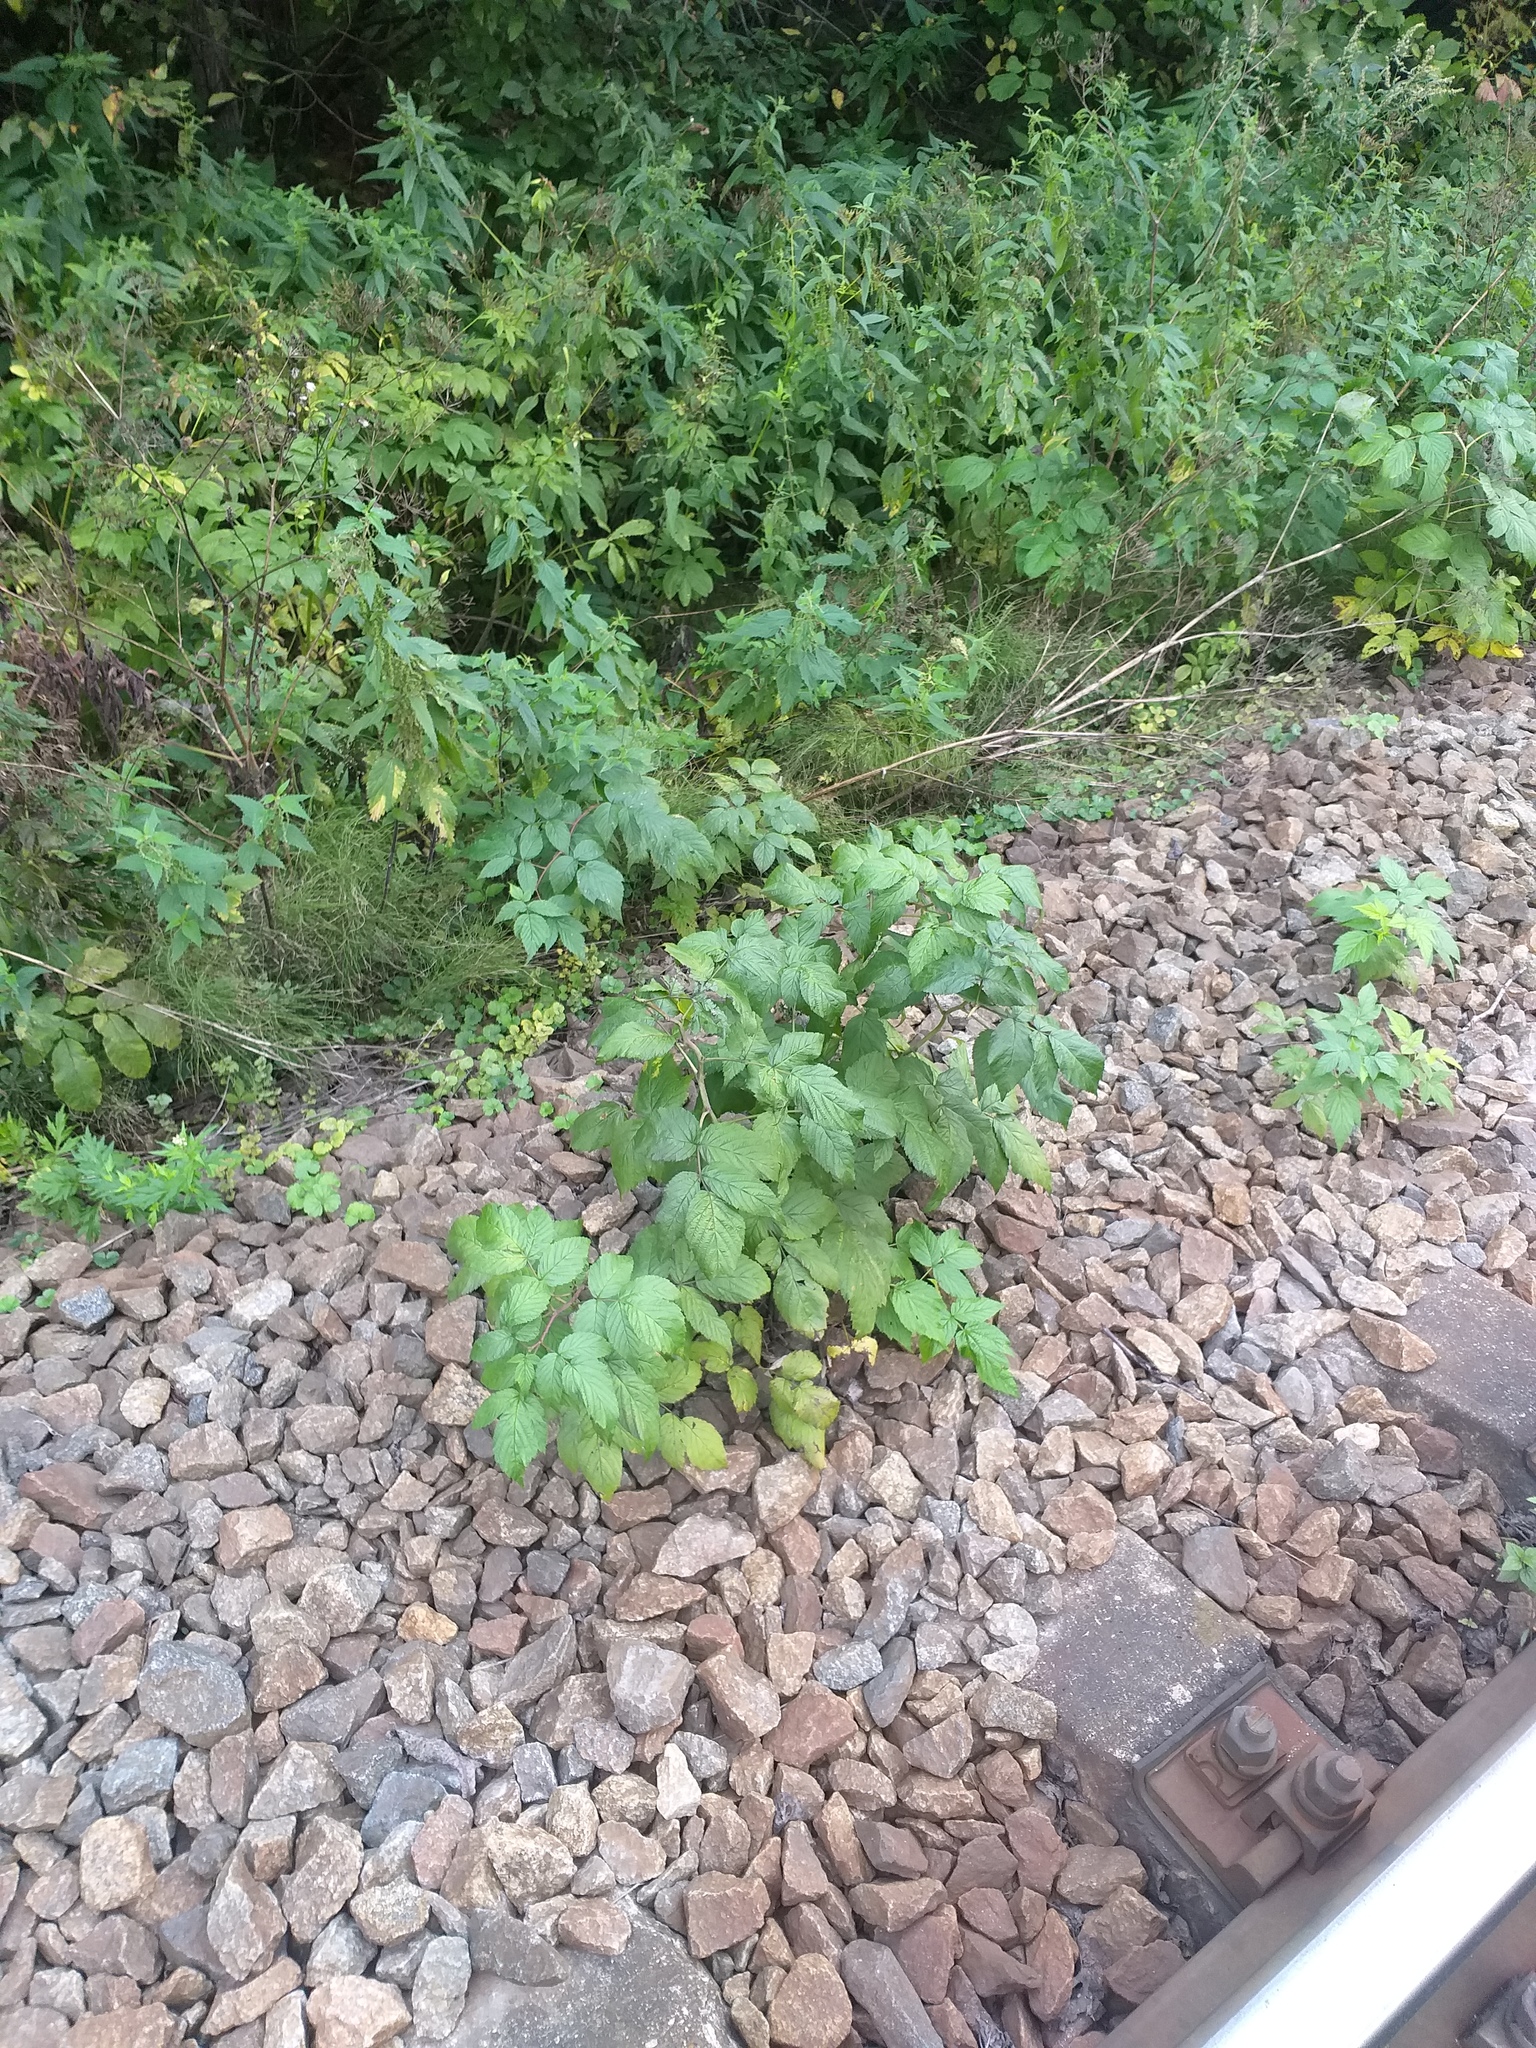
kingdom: Plantae
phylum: Tracheophyta
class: Magnoliopsida
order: Rosales
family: Rosaceae
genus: Rubus
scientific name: Rubus idaeus
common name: Raspberry
